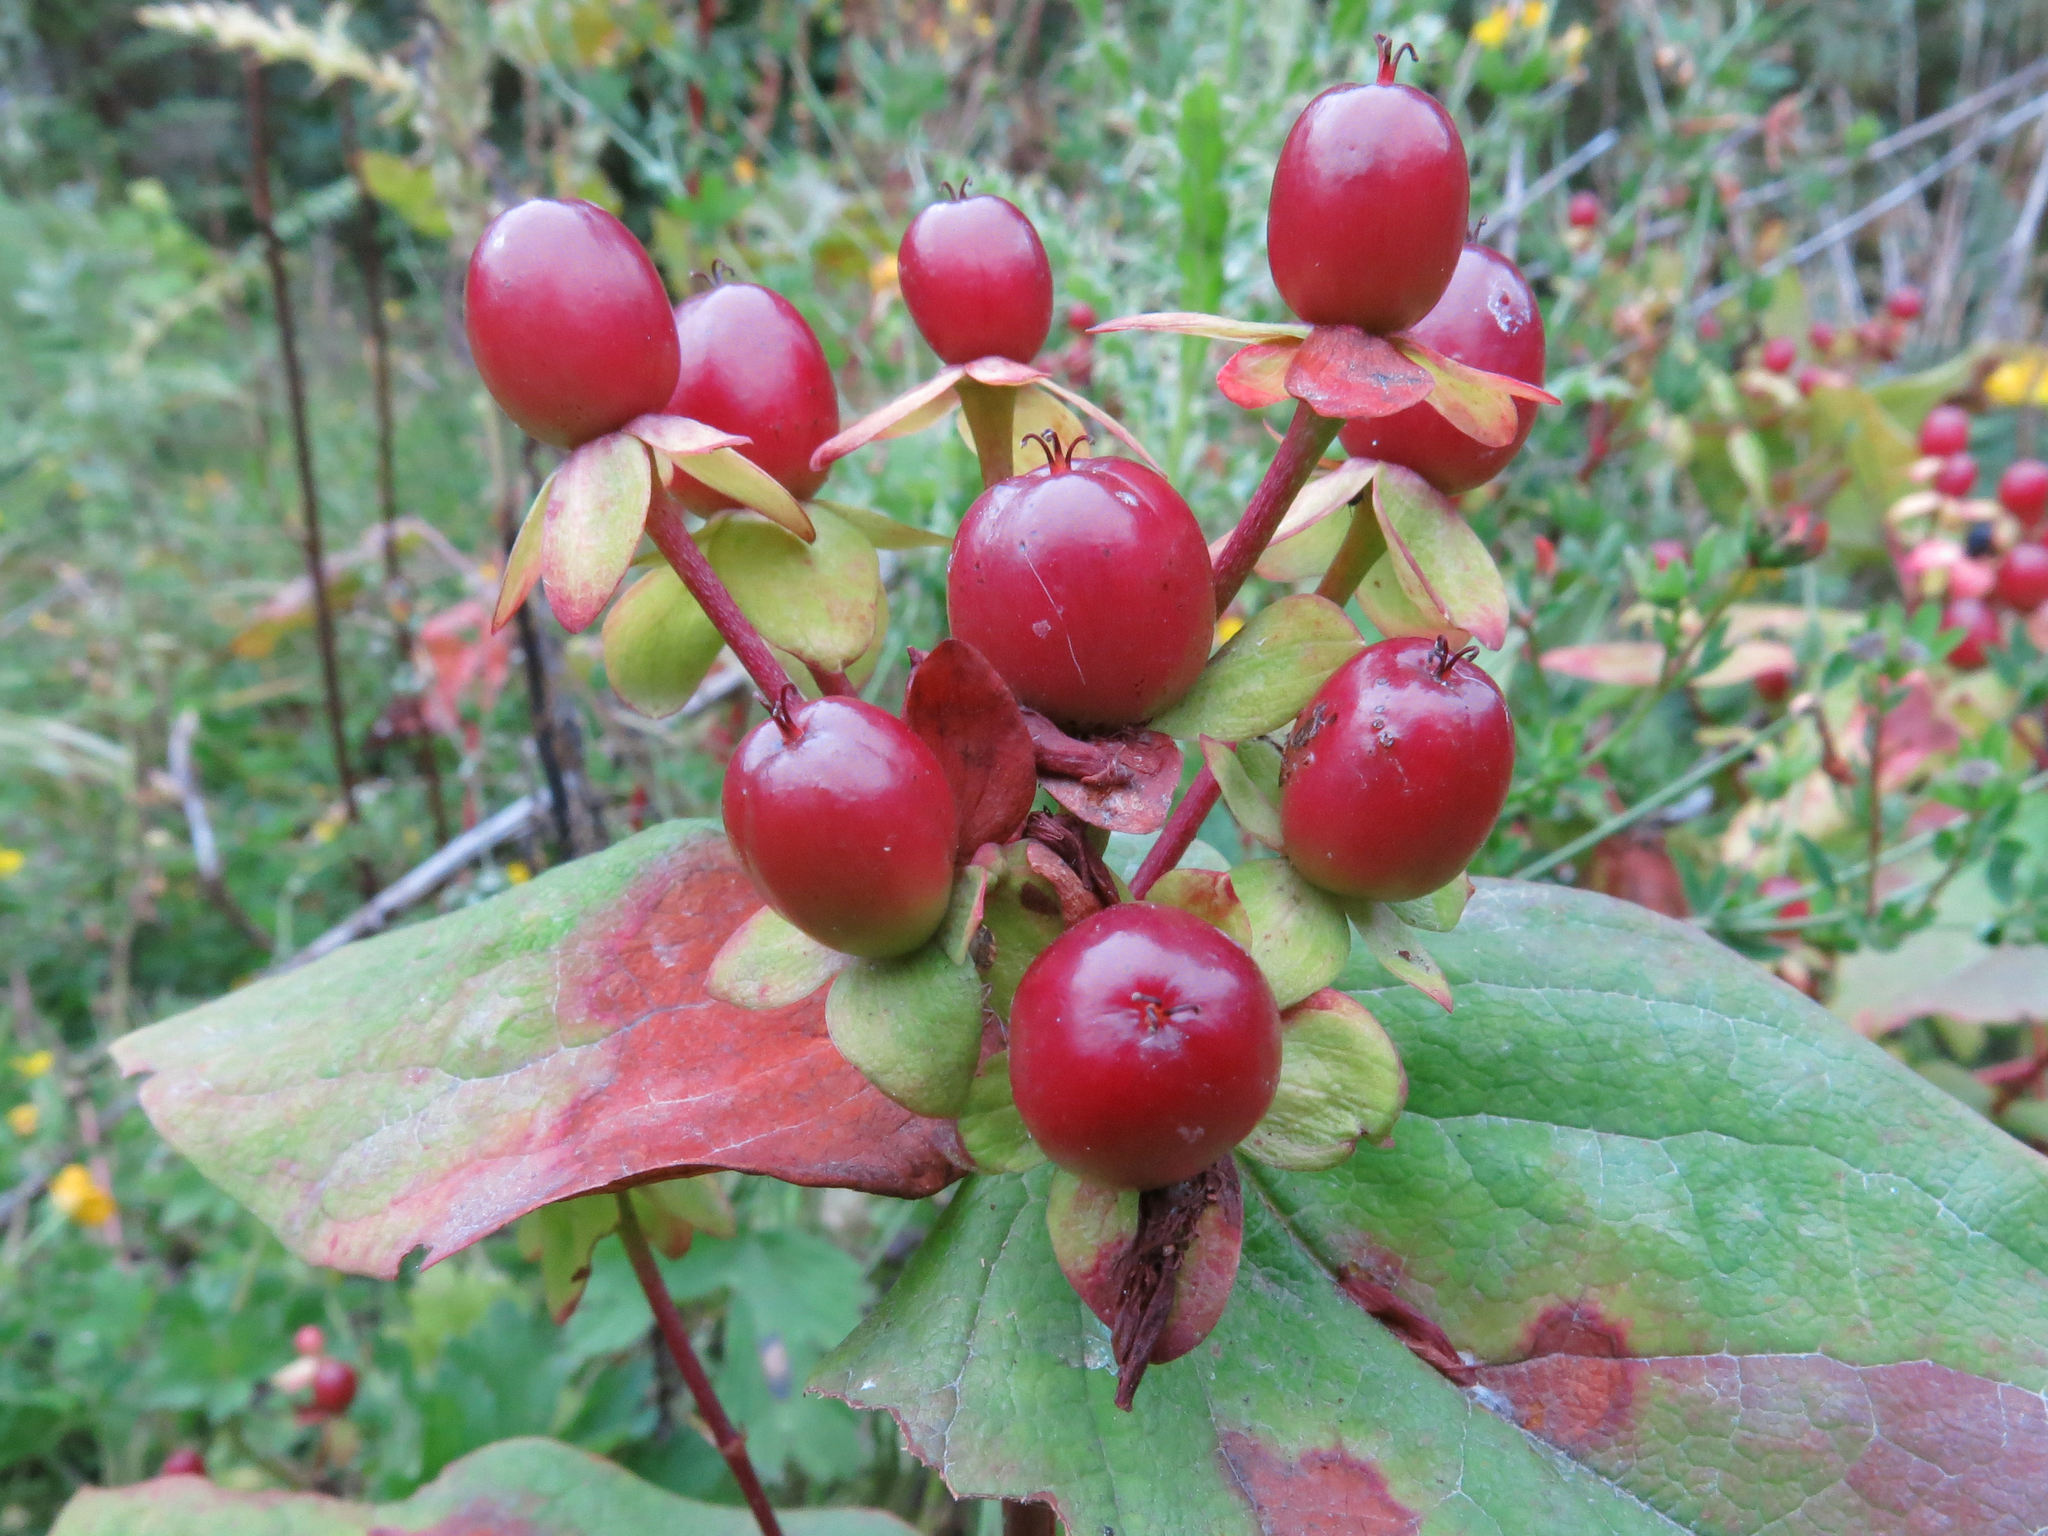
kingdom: Plantae
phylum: Tracheophyta
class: Magnoliopsida
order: Malpighiales
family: Hypericaceae
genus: Hypericum
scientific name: Hypericum androsaemum
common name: Sweet-amber
